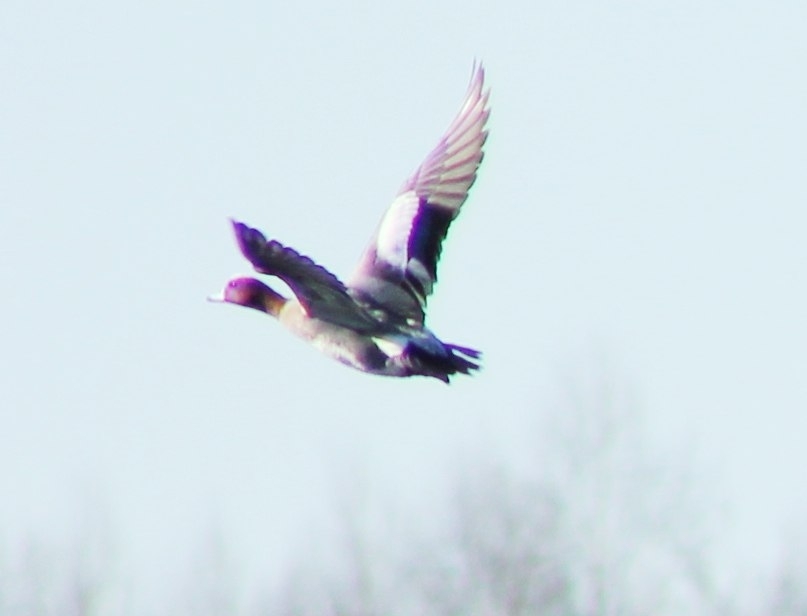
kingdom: Animalia
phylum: Chordata
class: Aves
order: Anseriformes
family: Anatidae
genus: Mareca
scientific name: Mareca penelope
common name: Eurasian wigeon
